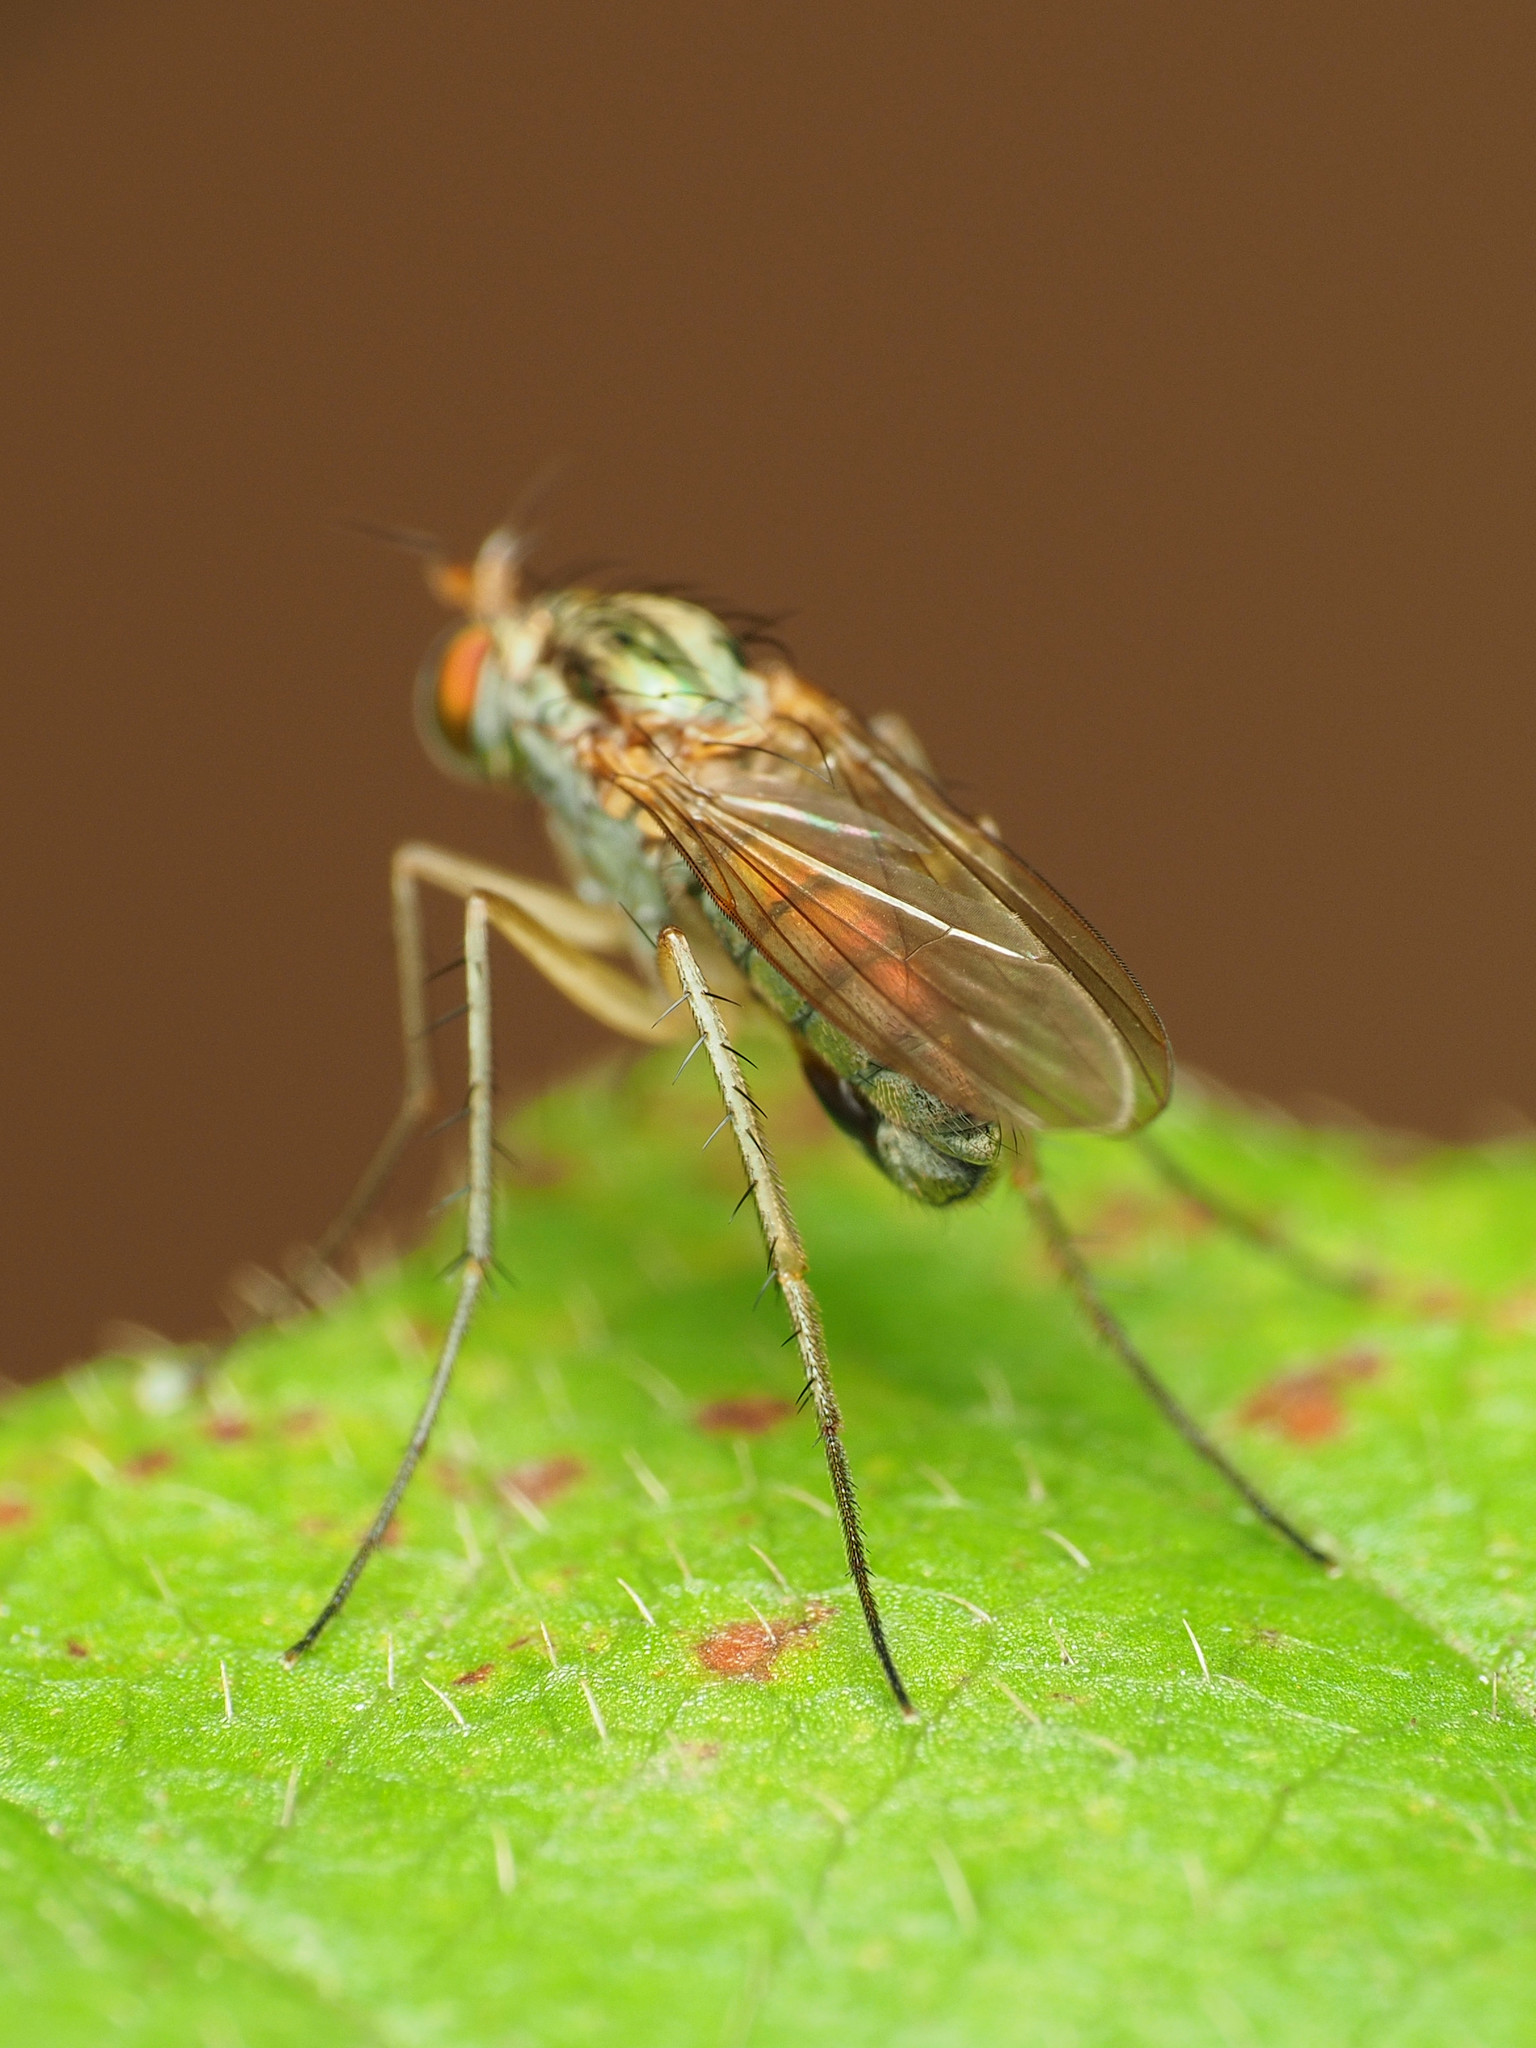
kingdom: Animalia
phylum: Arthropoda
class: Insecta
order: Diptera
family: Dolichopodidae
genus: Dolichopus
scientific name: Dolichopus
